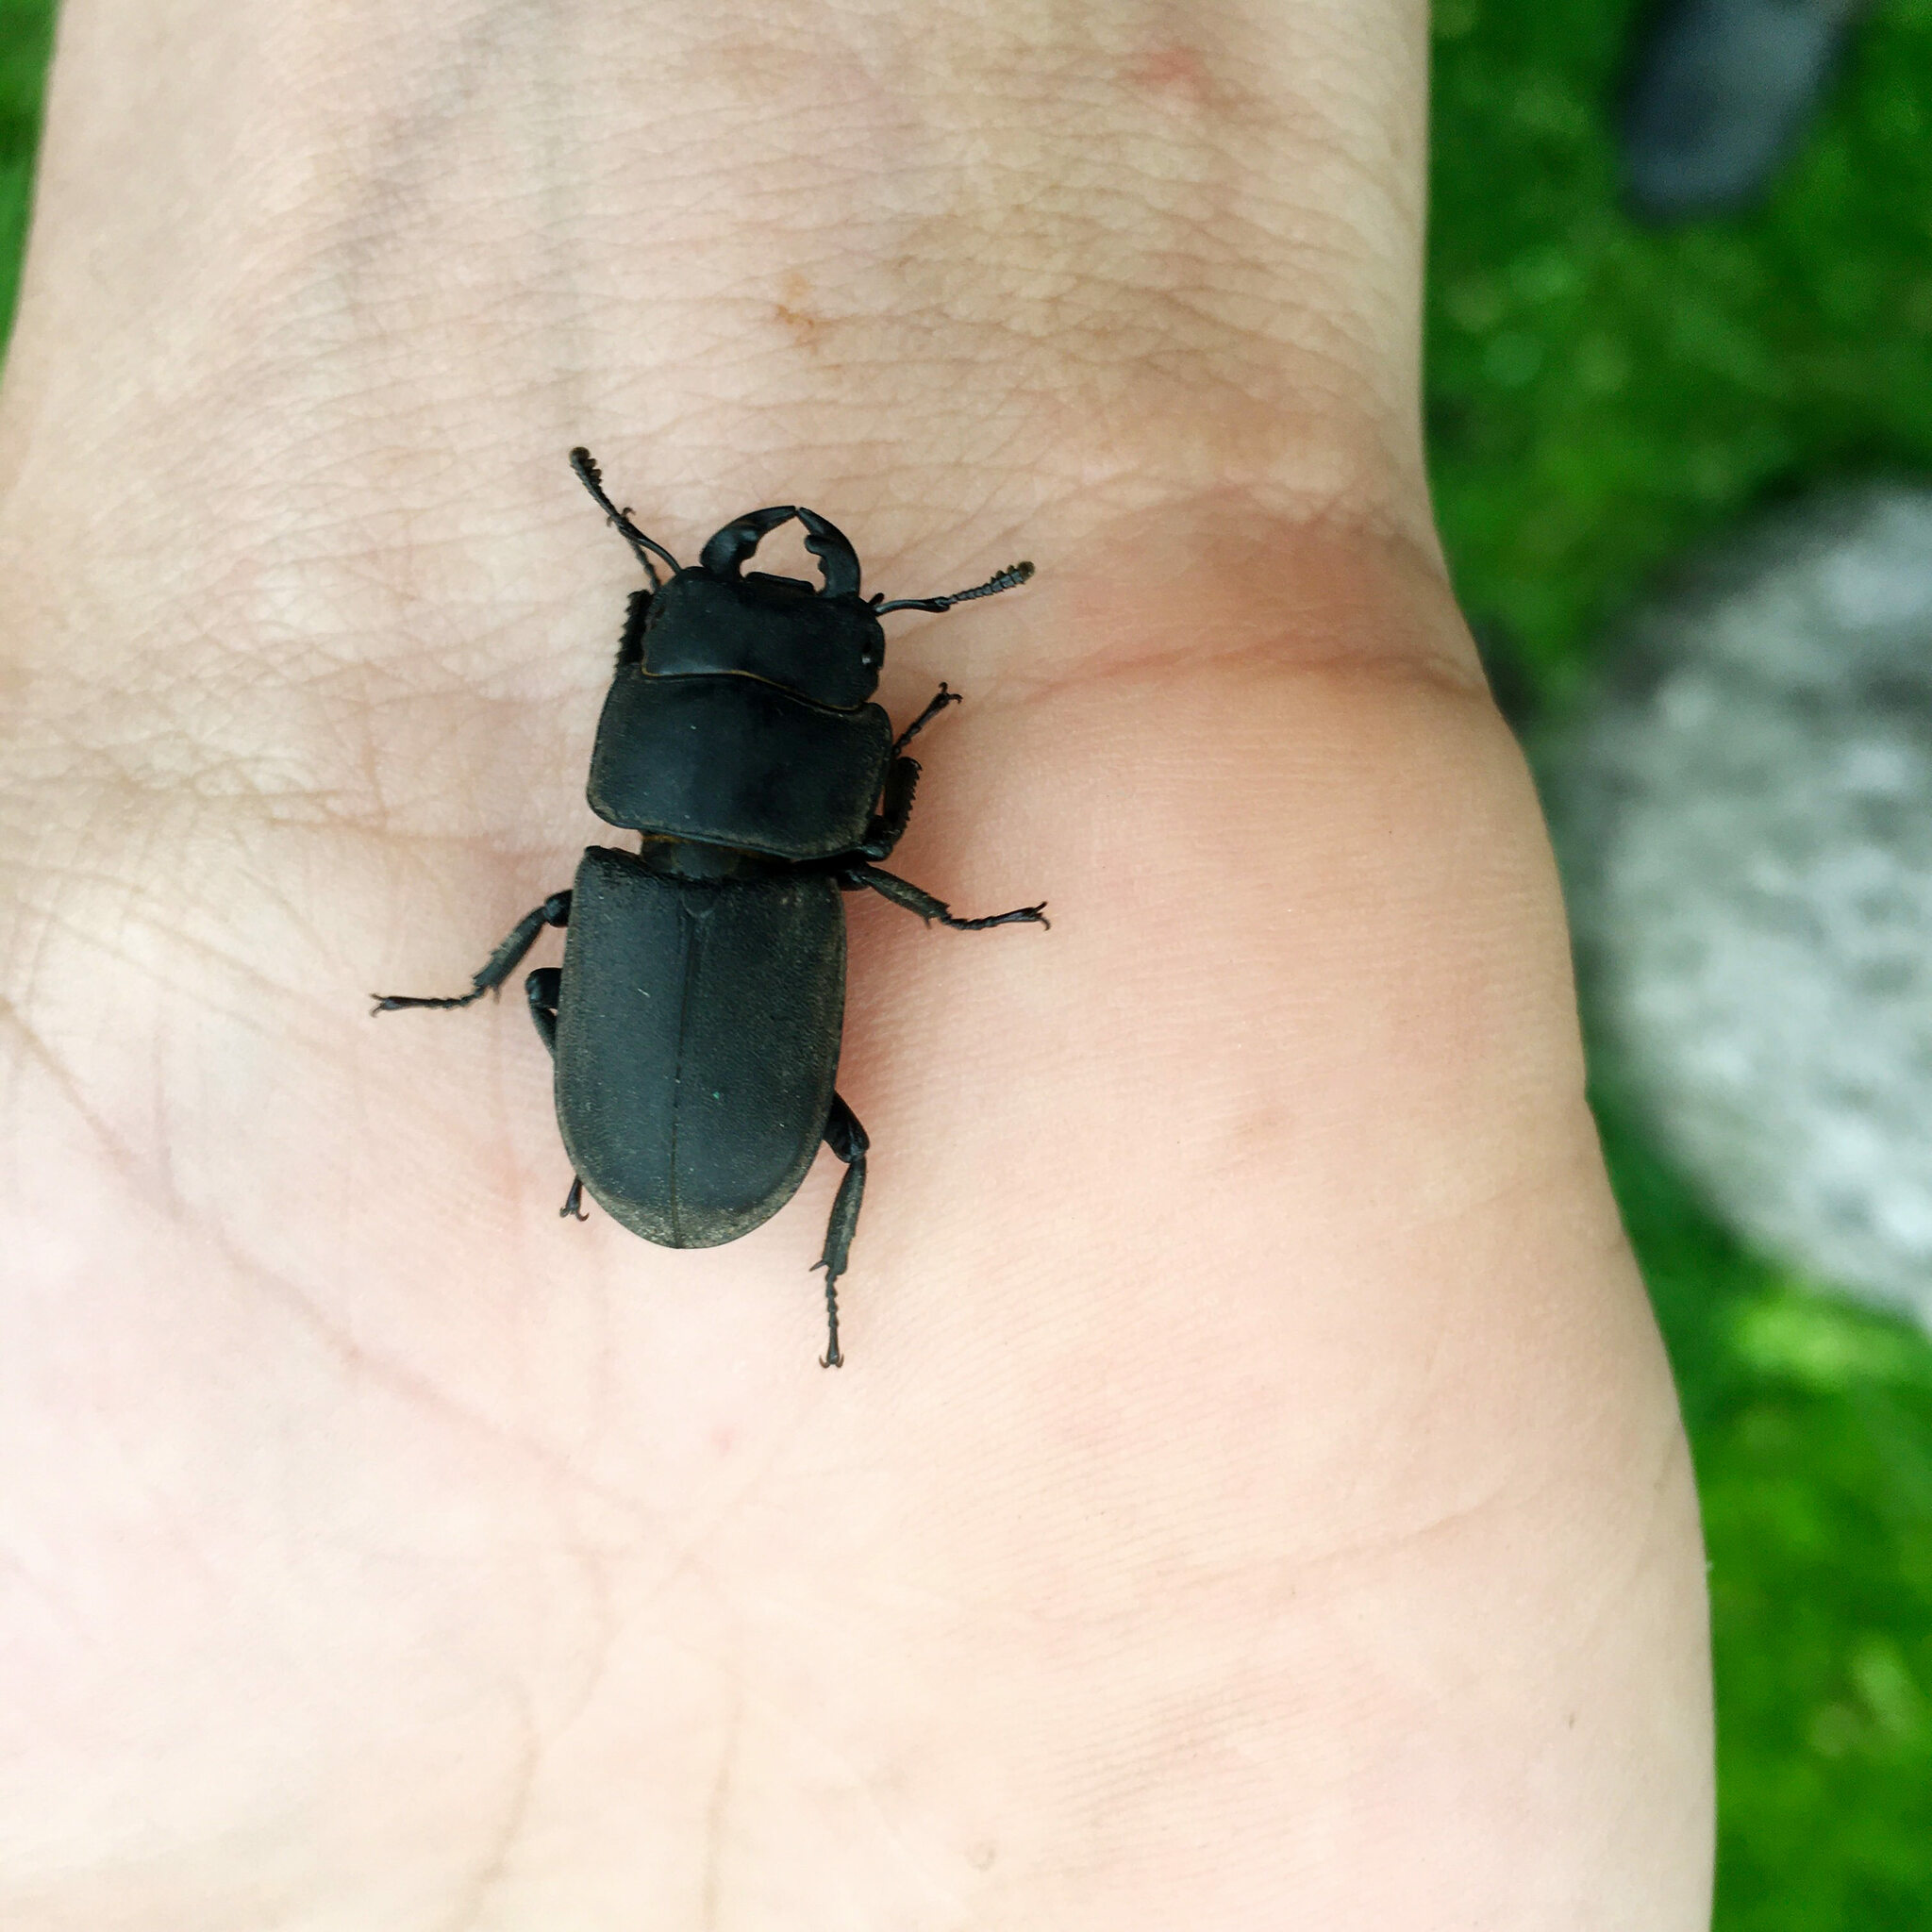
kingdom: Animalia
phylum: Arthropoda
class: Insecta
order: Coleoptera
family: Lucanidae
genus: Dorcus
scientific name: Dorcus parallelipipedus
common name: Lesser stag beetle
